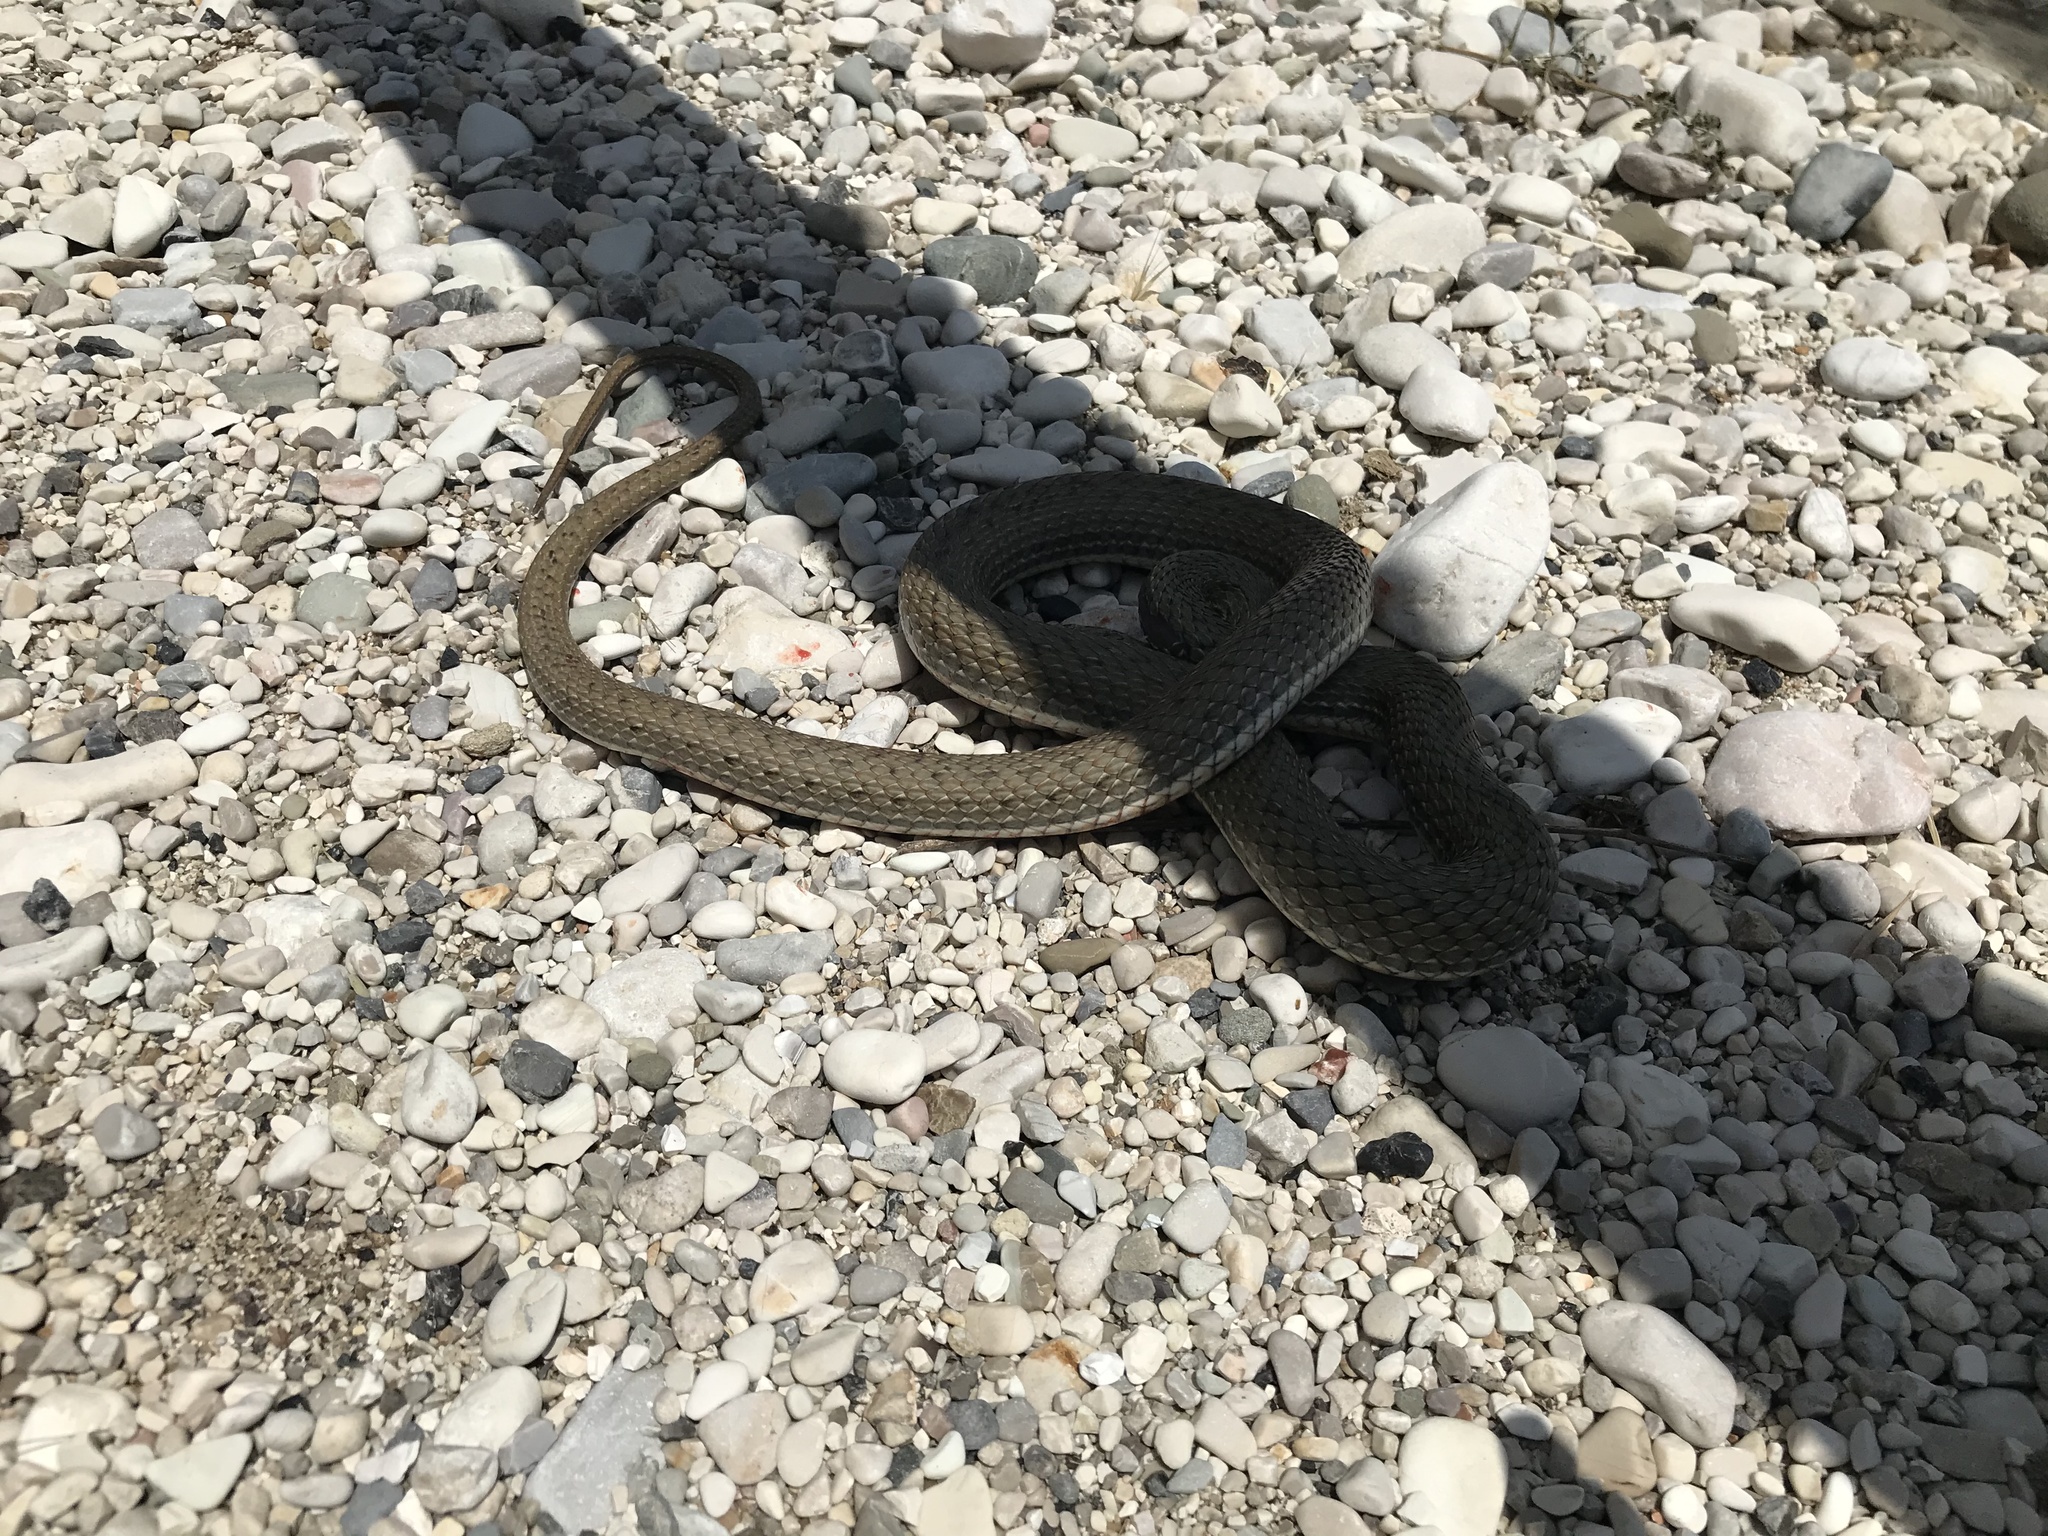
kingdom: Animalia
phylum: Chordata
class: Squamata
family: Psammophiidae
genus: Malpolon
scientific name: Malpolon insignitus
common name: Eastern montpellier snake
